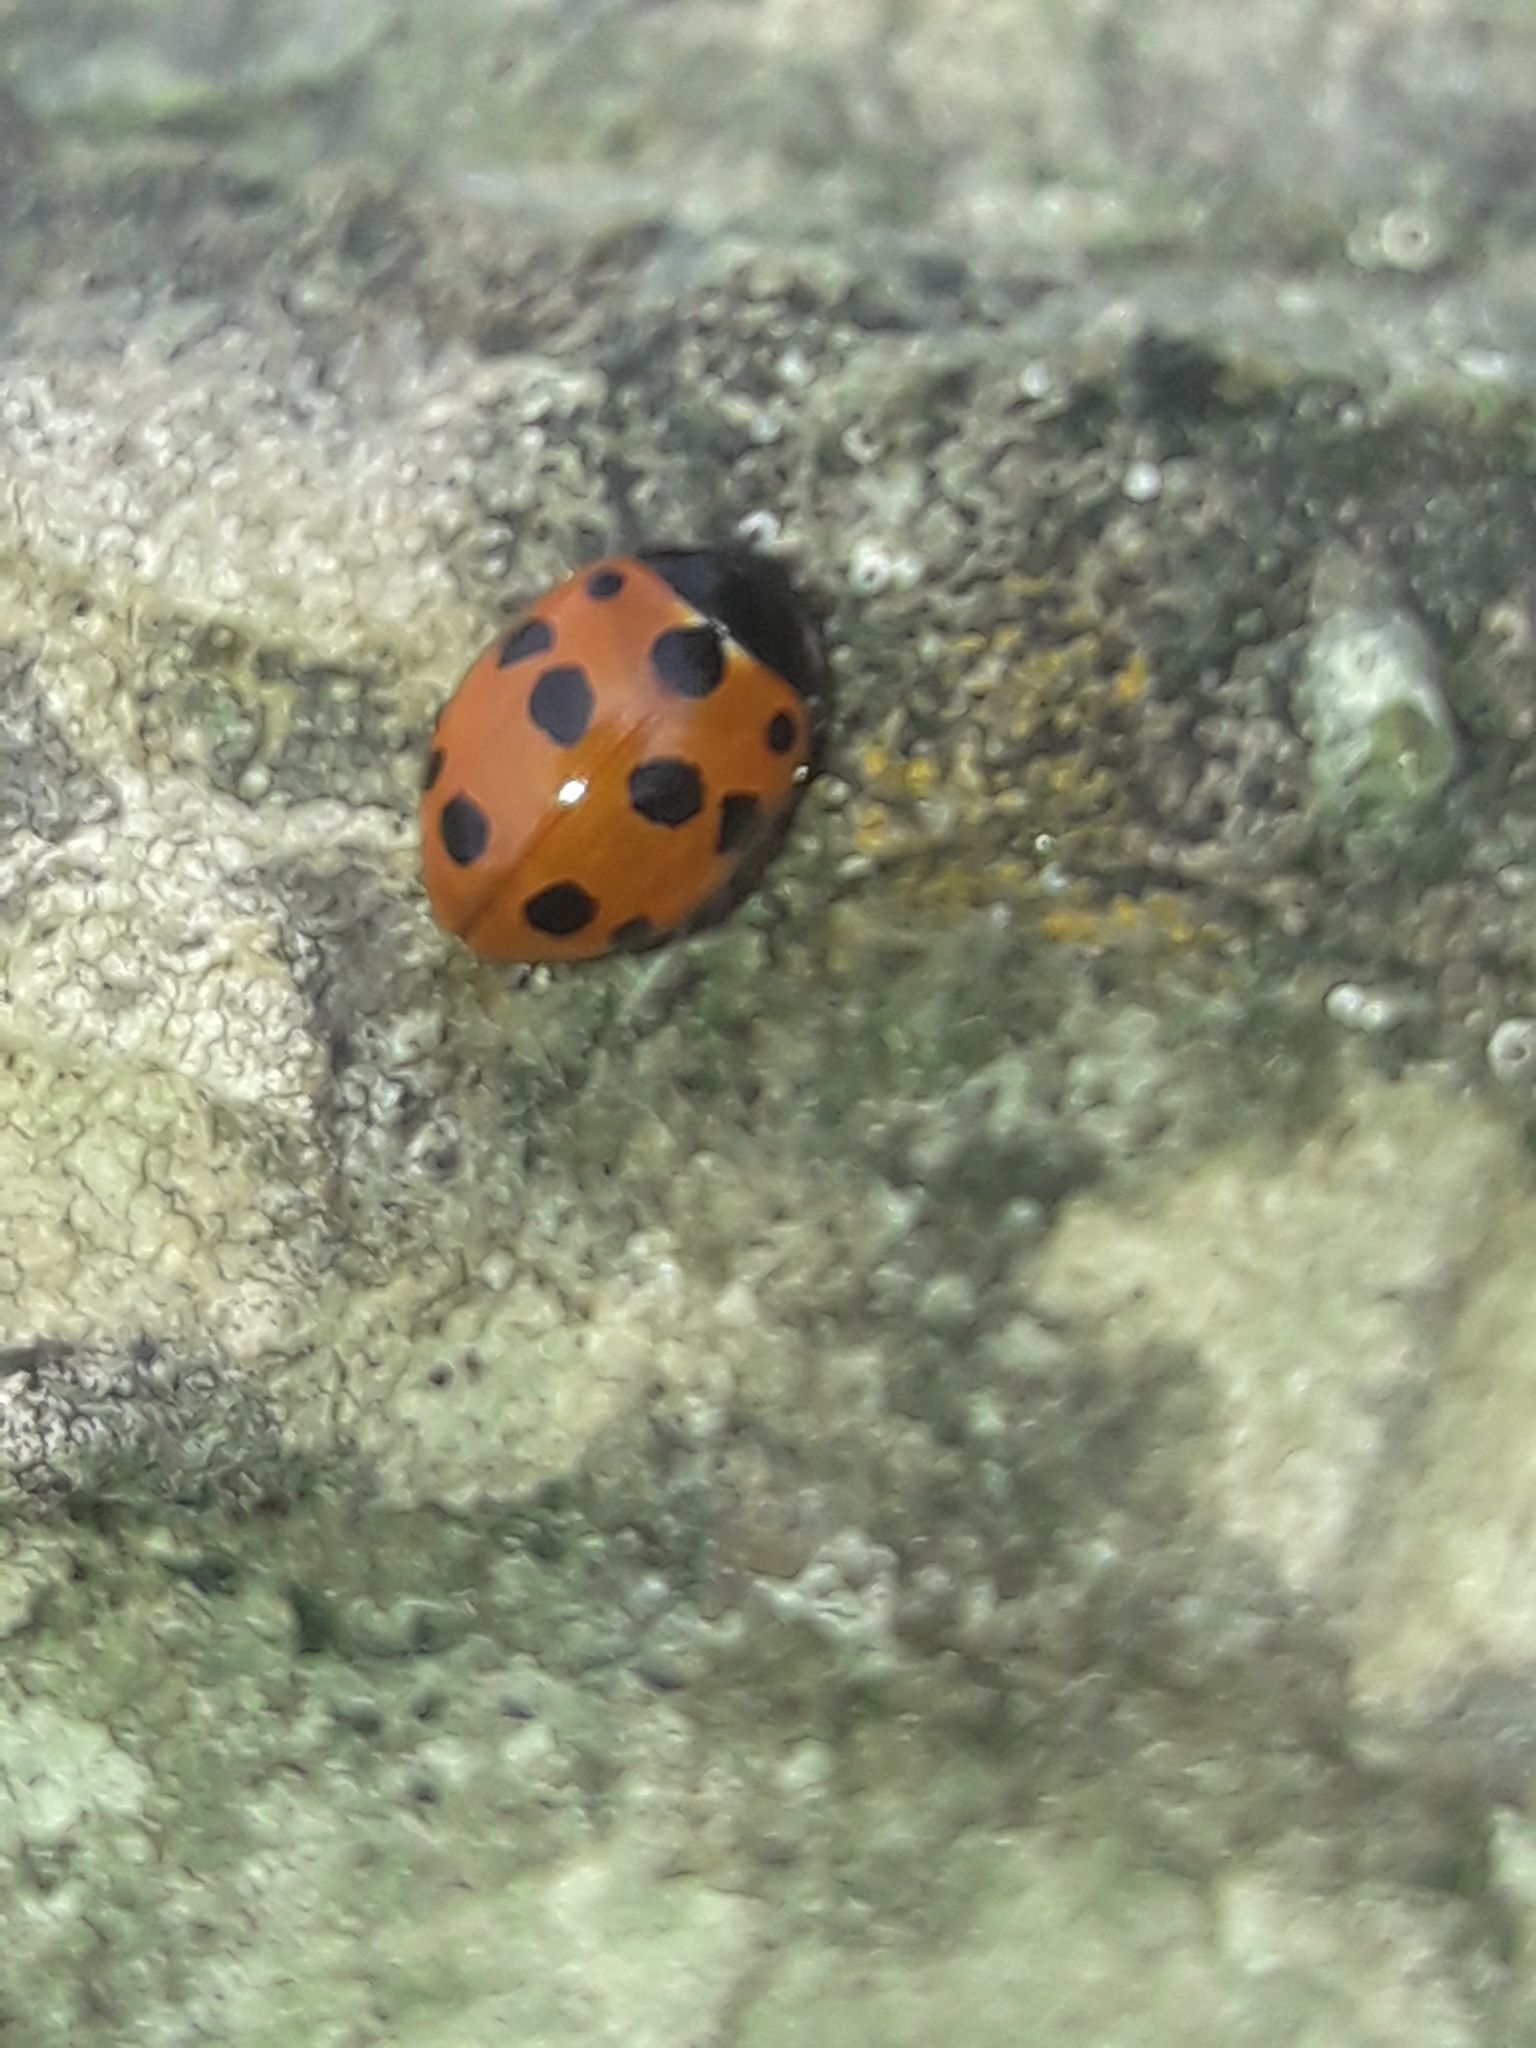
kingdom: Animalia
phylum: Arthropoda
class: Insecta
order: Coleoptera
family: Coccinellidae
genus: Coccinella
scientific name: Coccinella undecimpunctata
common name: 11-spot ladybird
